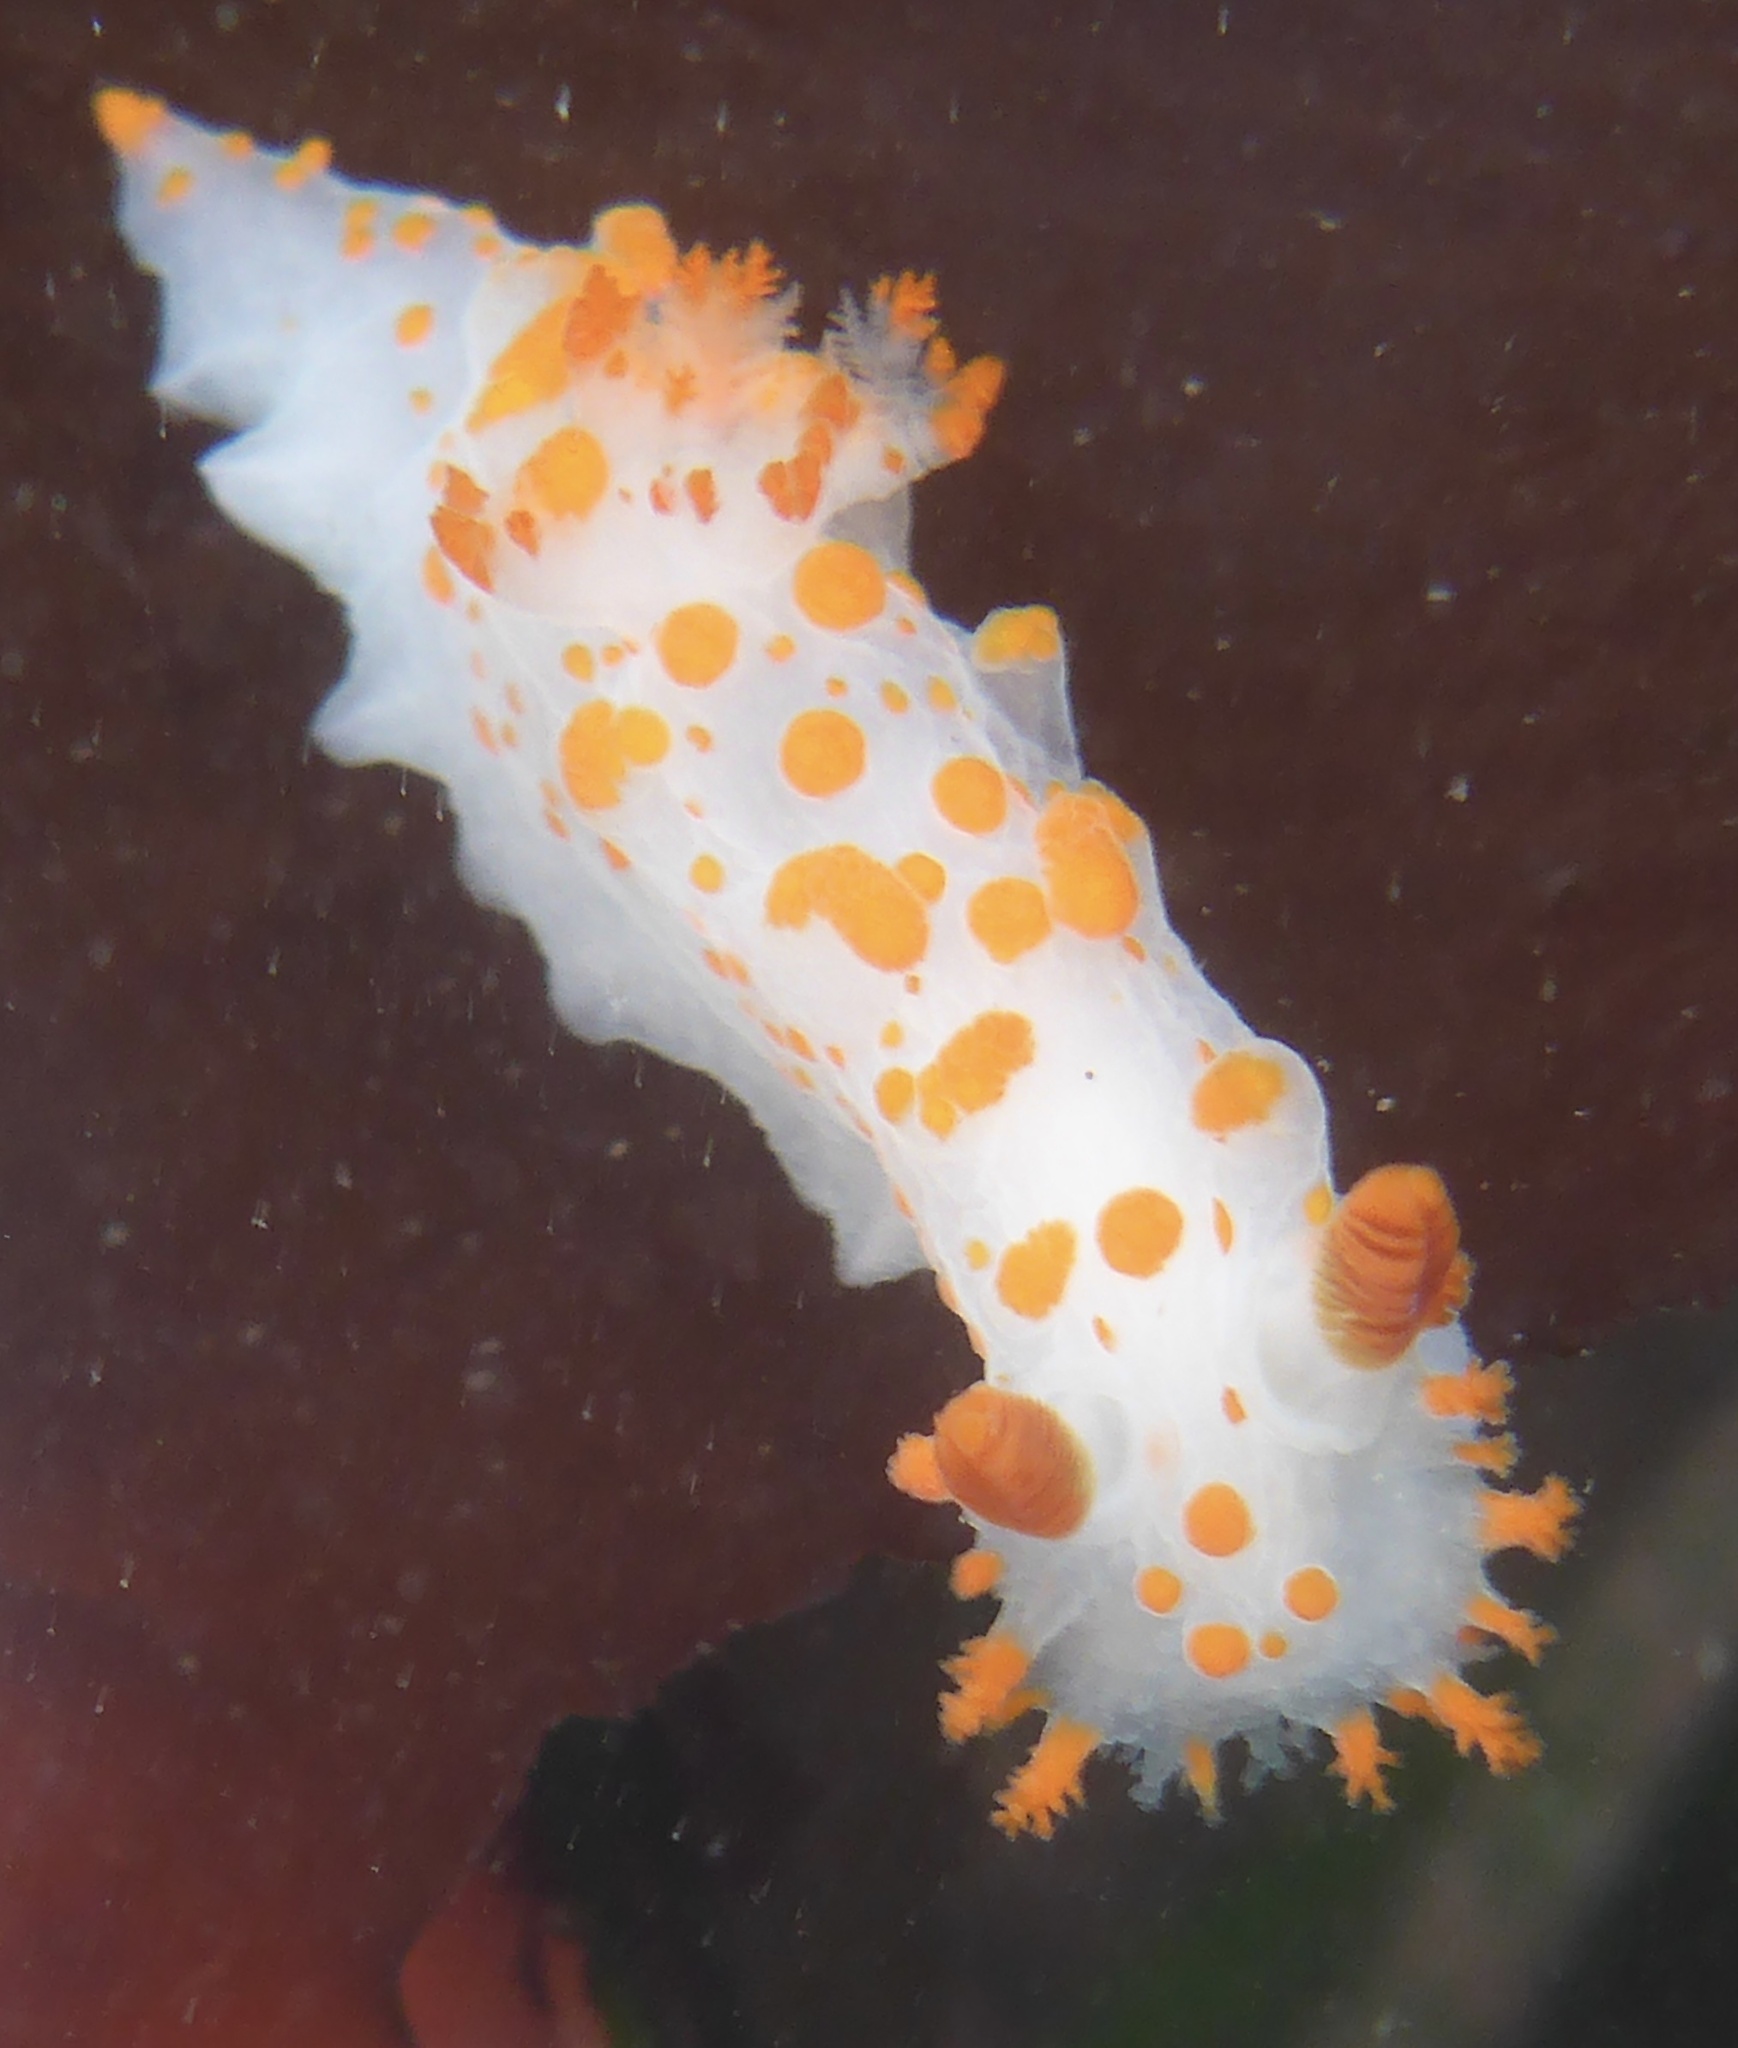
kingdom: Animalia
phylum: Mollusca
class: Gastropoda
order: Nudibranchia
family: Polyceridae
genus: Triopha
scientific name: Triopha catalinae
